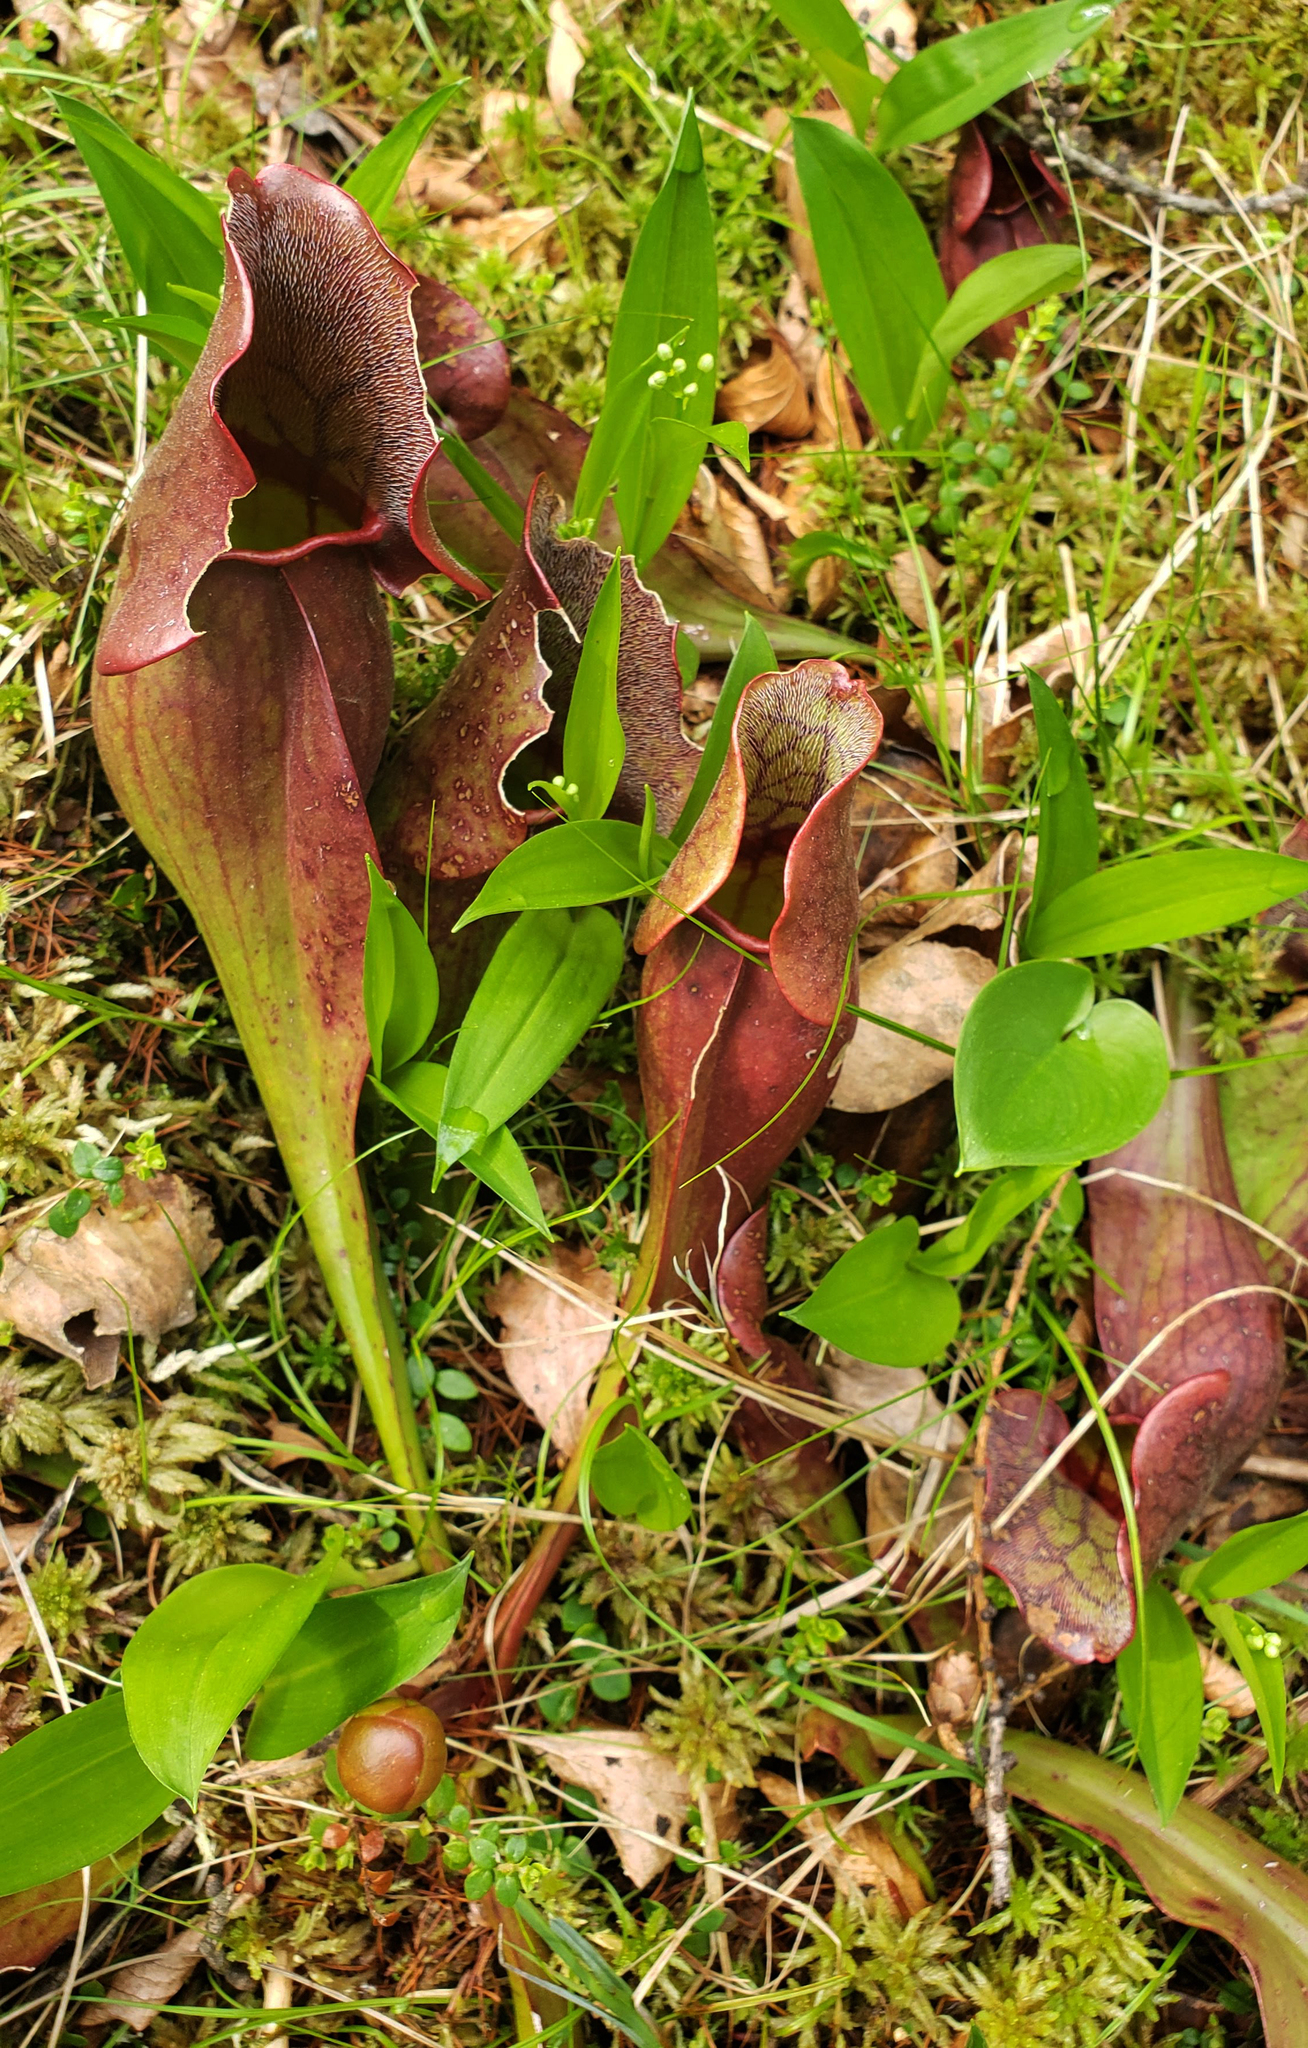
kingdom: Plantae
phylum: Tracheophyta
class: Magnoliopsida
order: Ericales
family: Sarraceniaceae
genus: Sarracenia
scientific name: Sarracenia purpurea
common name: Pitcherplant
